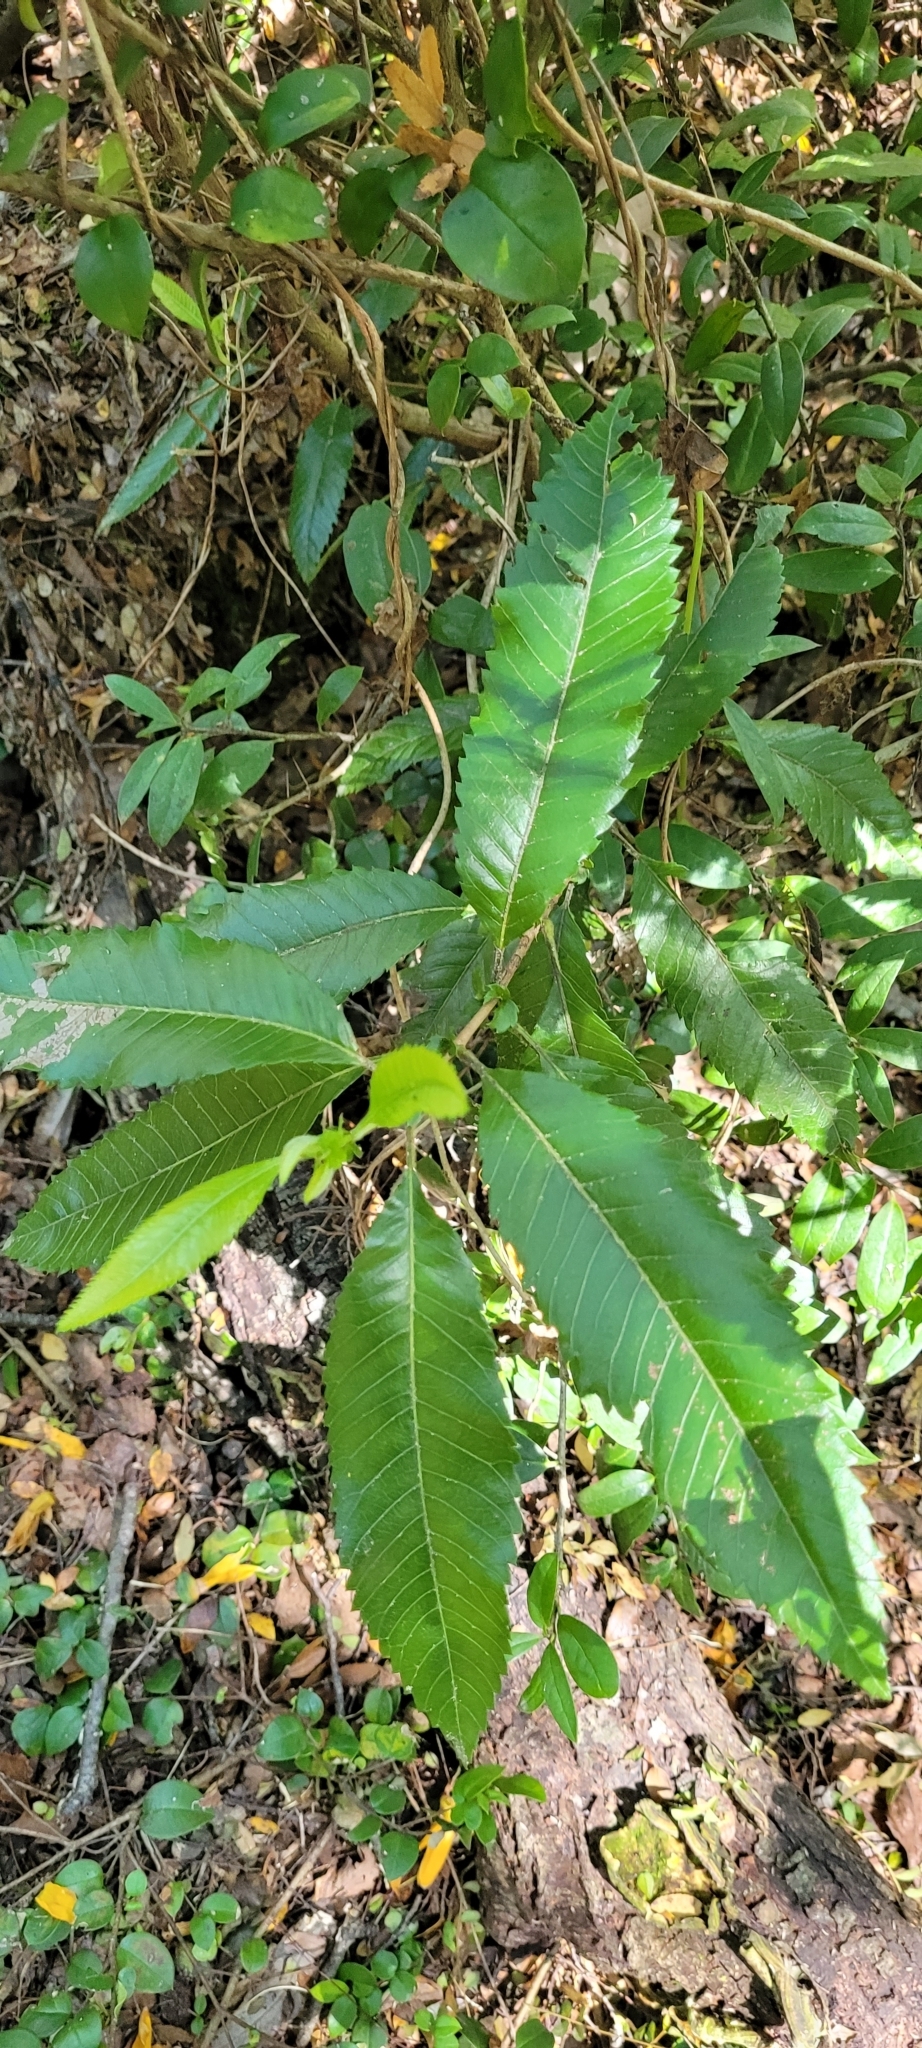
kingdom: Plantae
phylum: Tracheophyta
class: Magnoliopsida
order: Oxalidales
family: Cunoniaceae
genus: Caldcluvia
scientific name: Caldcluvia paniculata
